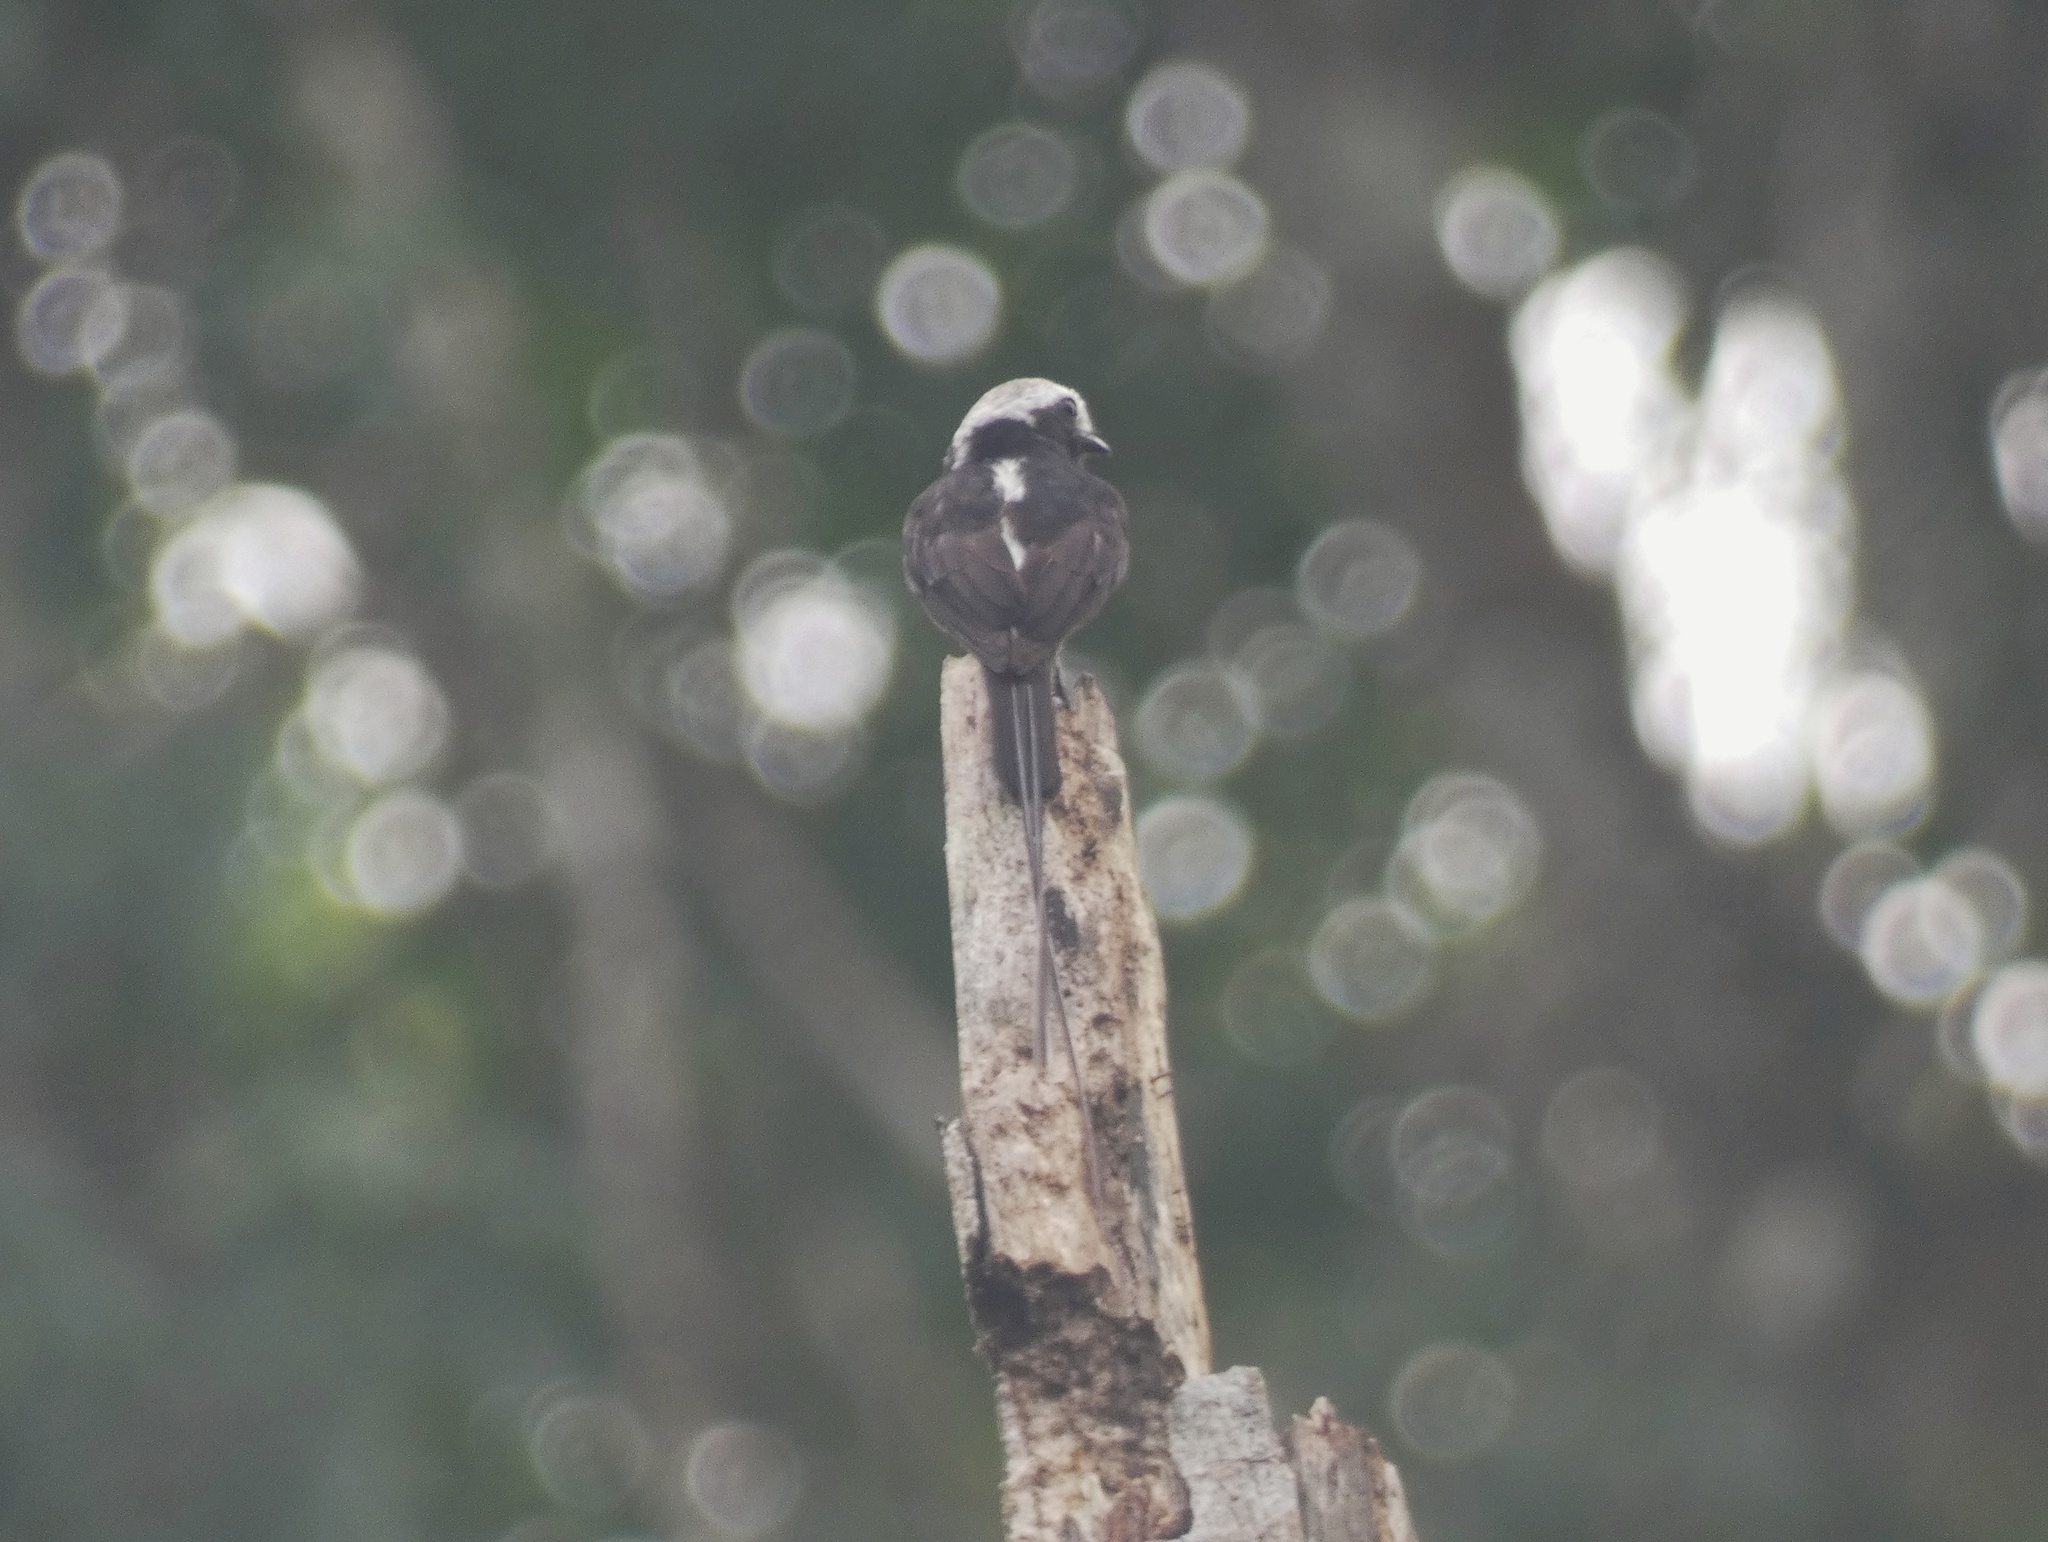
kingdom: Animalia
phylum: Chordata
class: Aves
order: Passeriformes
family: Tyrannidae
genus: Colonia
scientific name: Colonia colonus
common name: Long-tailed tyrant
